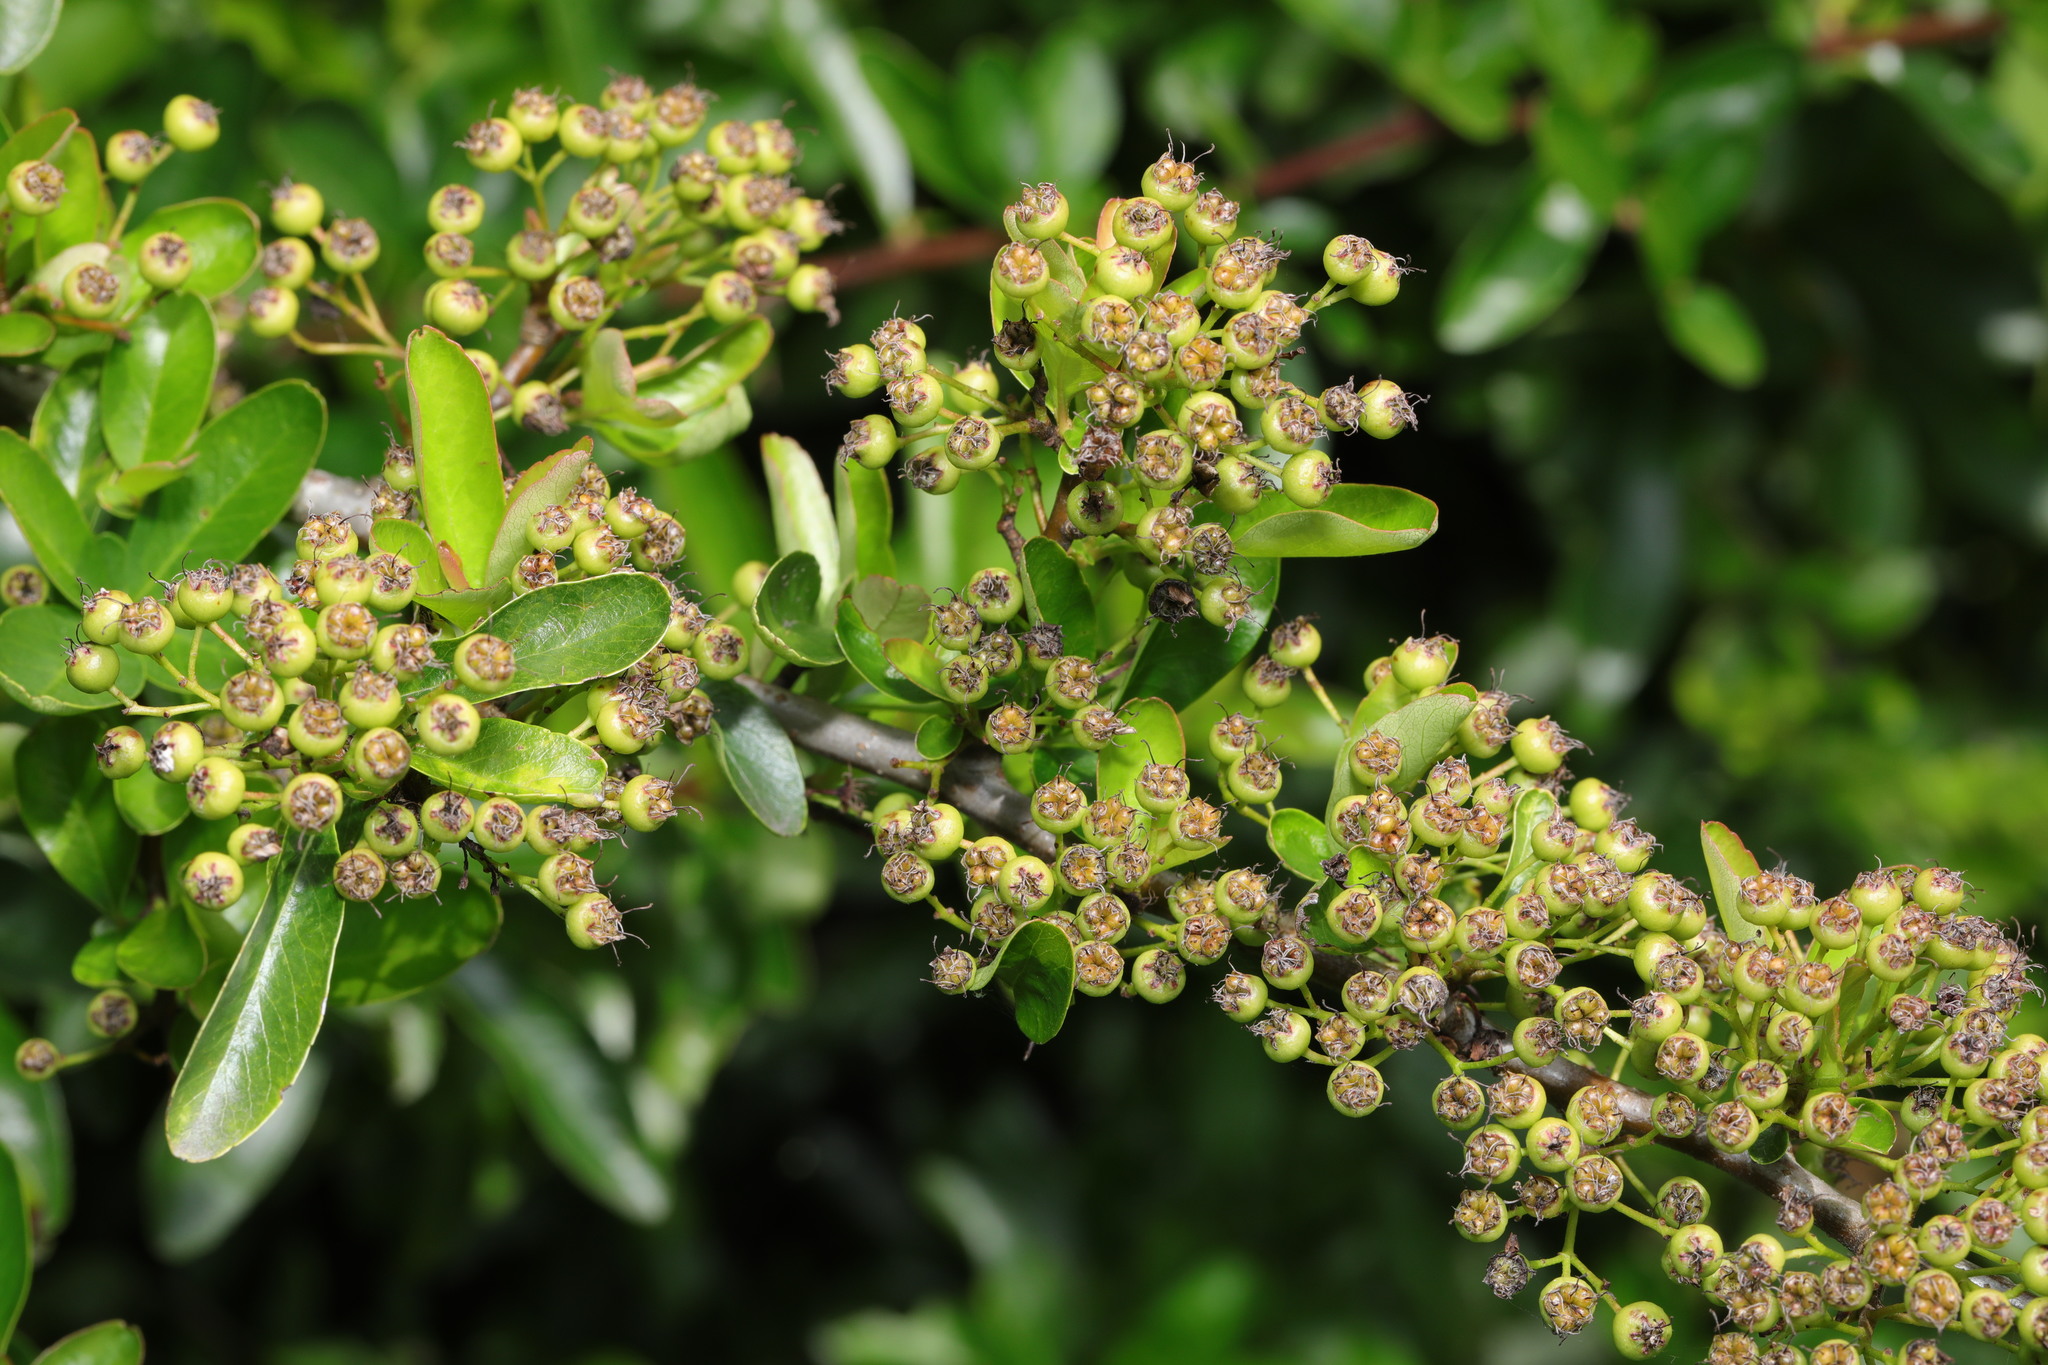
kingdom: Plantae
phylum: Tracheophyta
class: Magnoliopsida
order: Rosales
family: Rosaceae
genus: Pyracantha
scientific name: Pyracantha coccinea
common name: Firethorn
